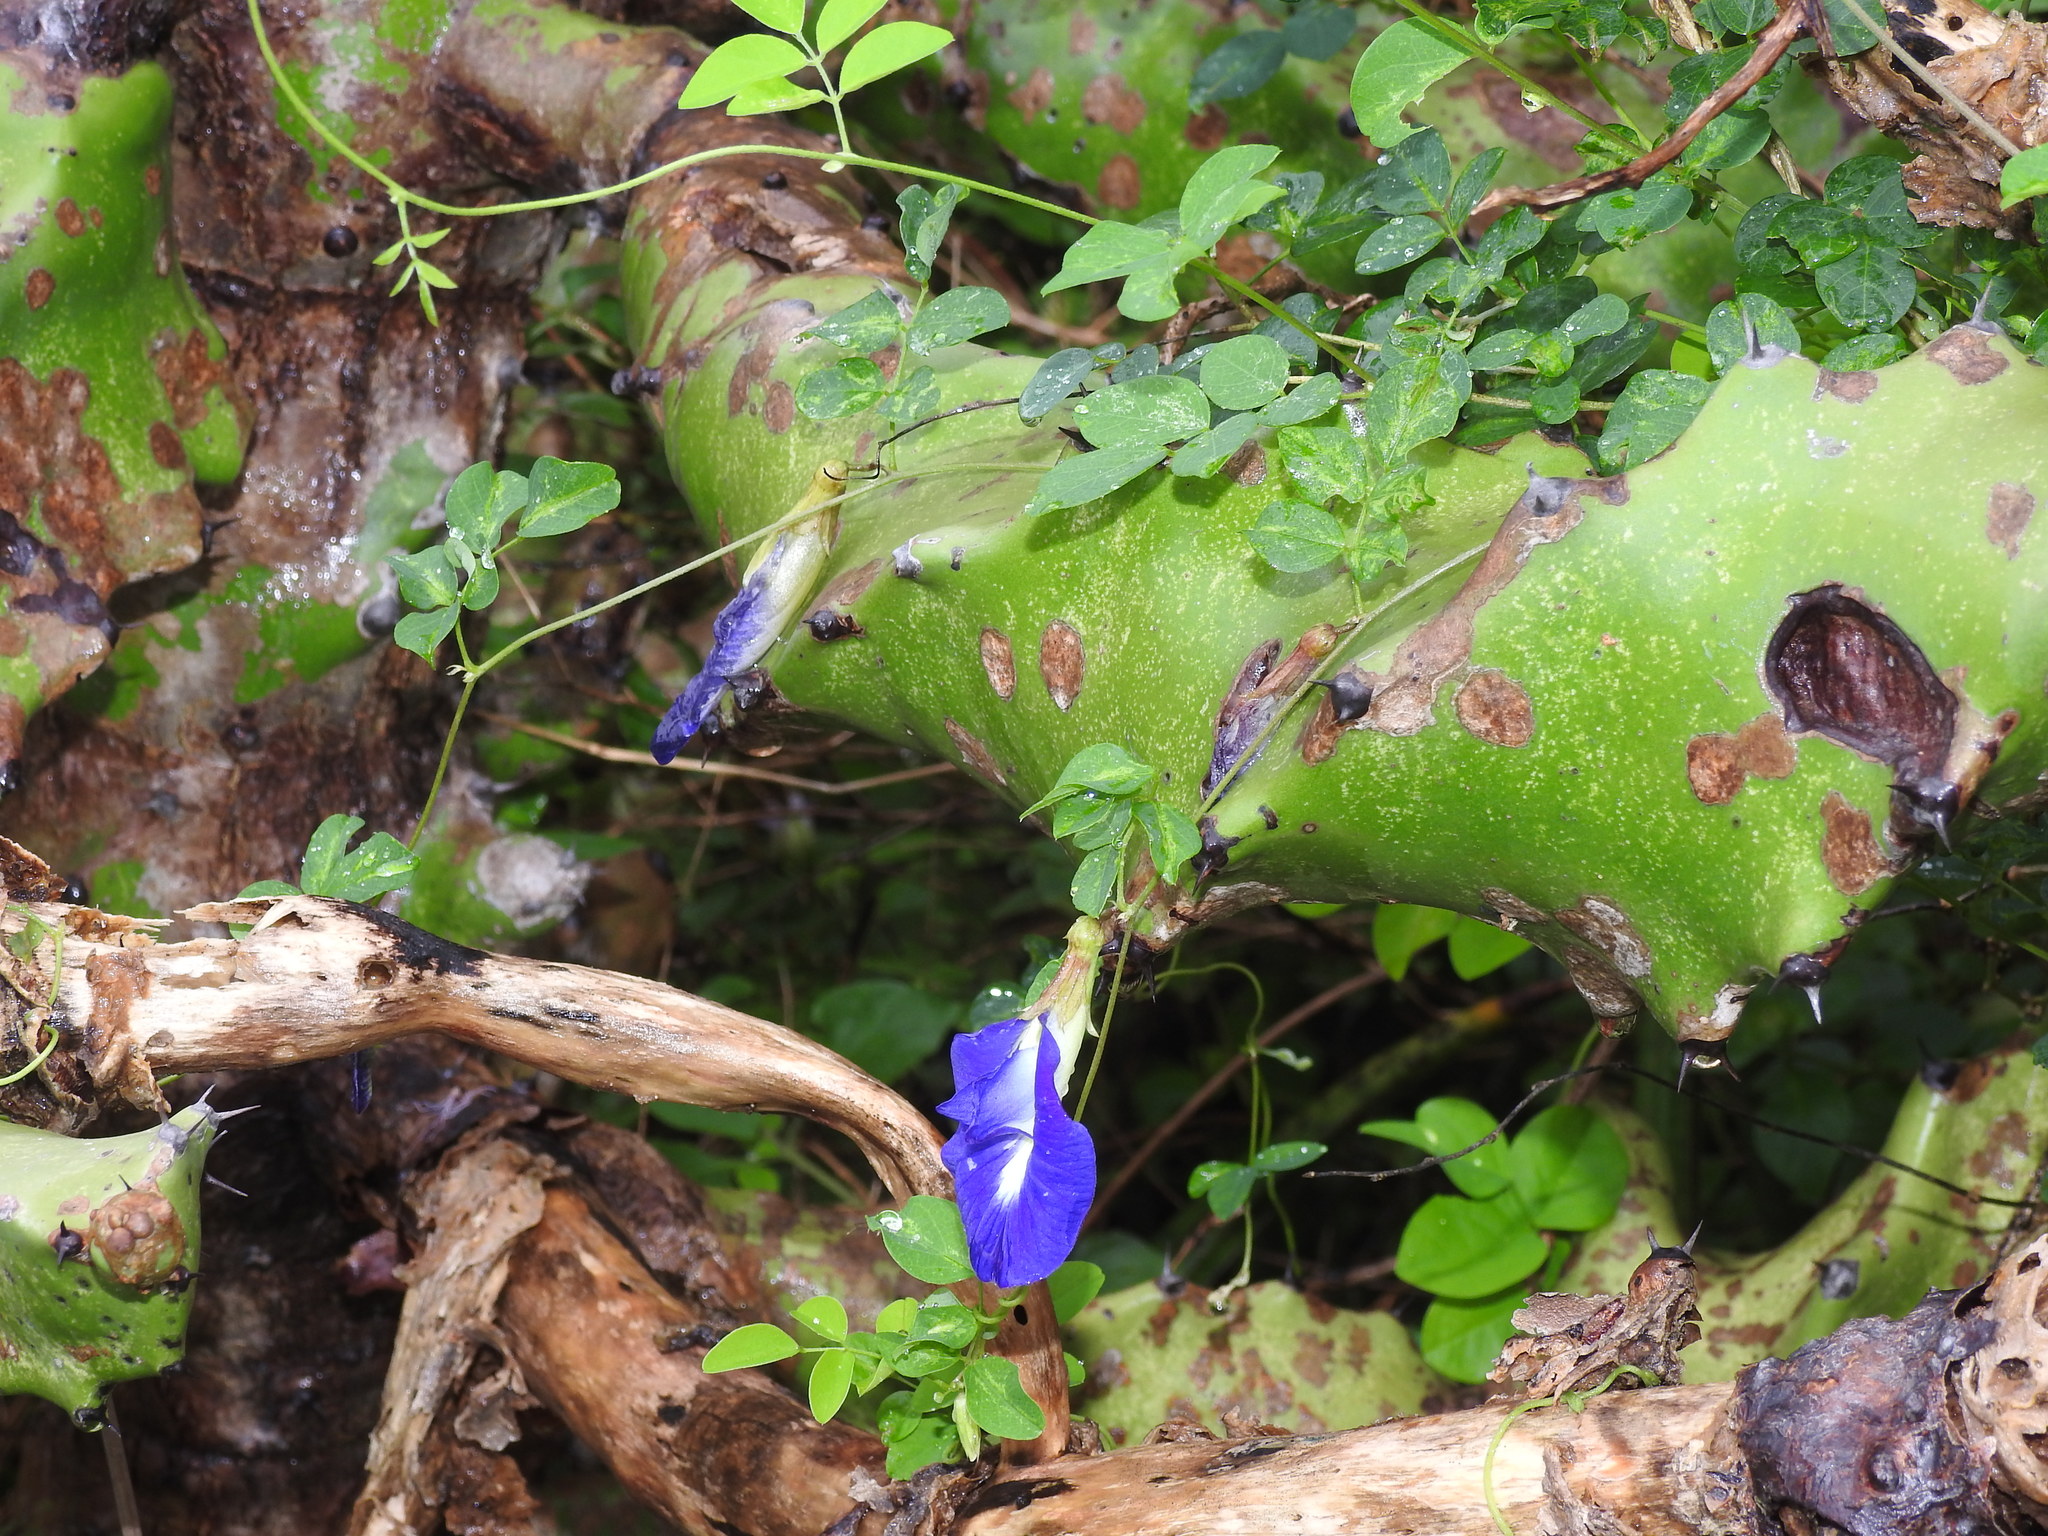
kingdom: Plantae
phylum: Tracheophyta
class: Magnoliopsida
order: Fabales
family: Fabaceae
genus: Clitoria
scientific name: Clitoria ternatea
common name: Asian pigeonwings
